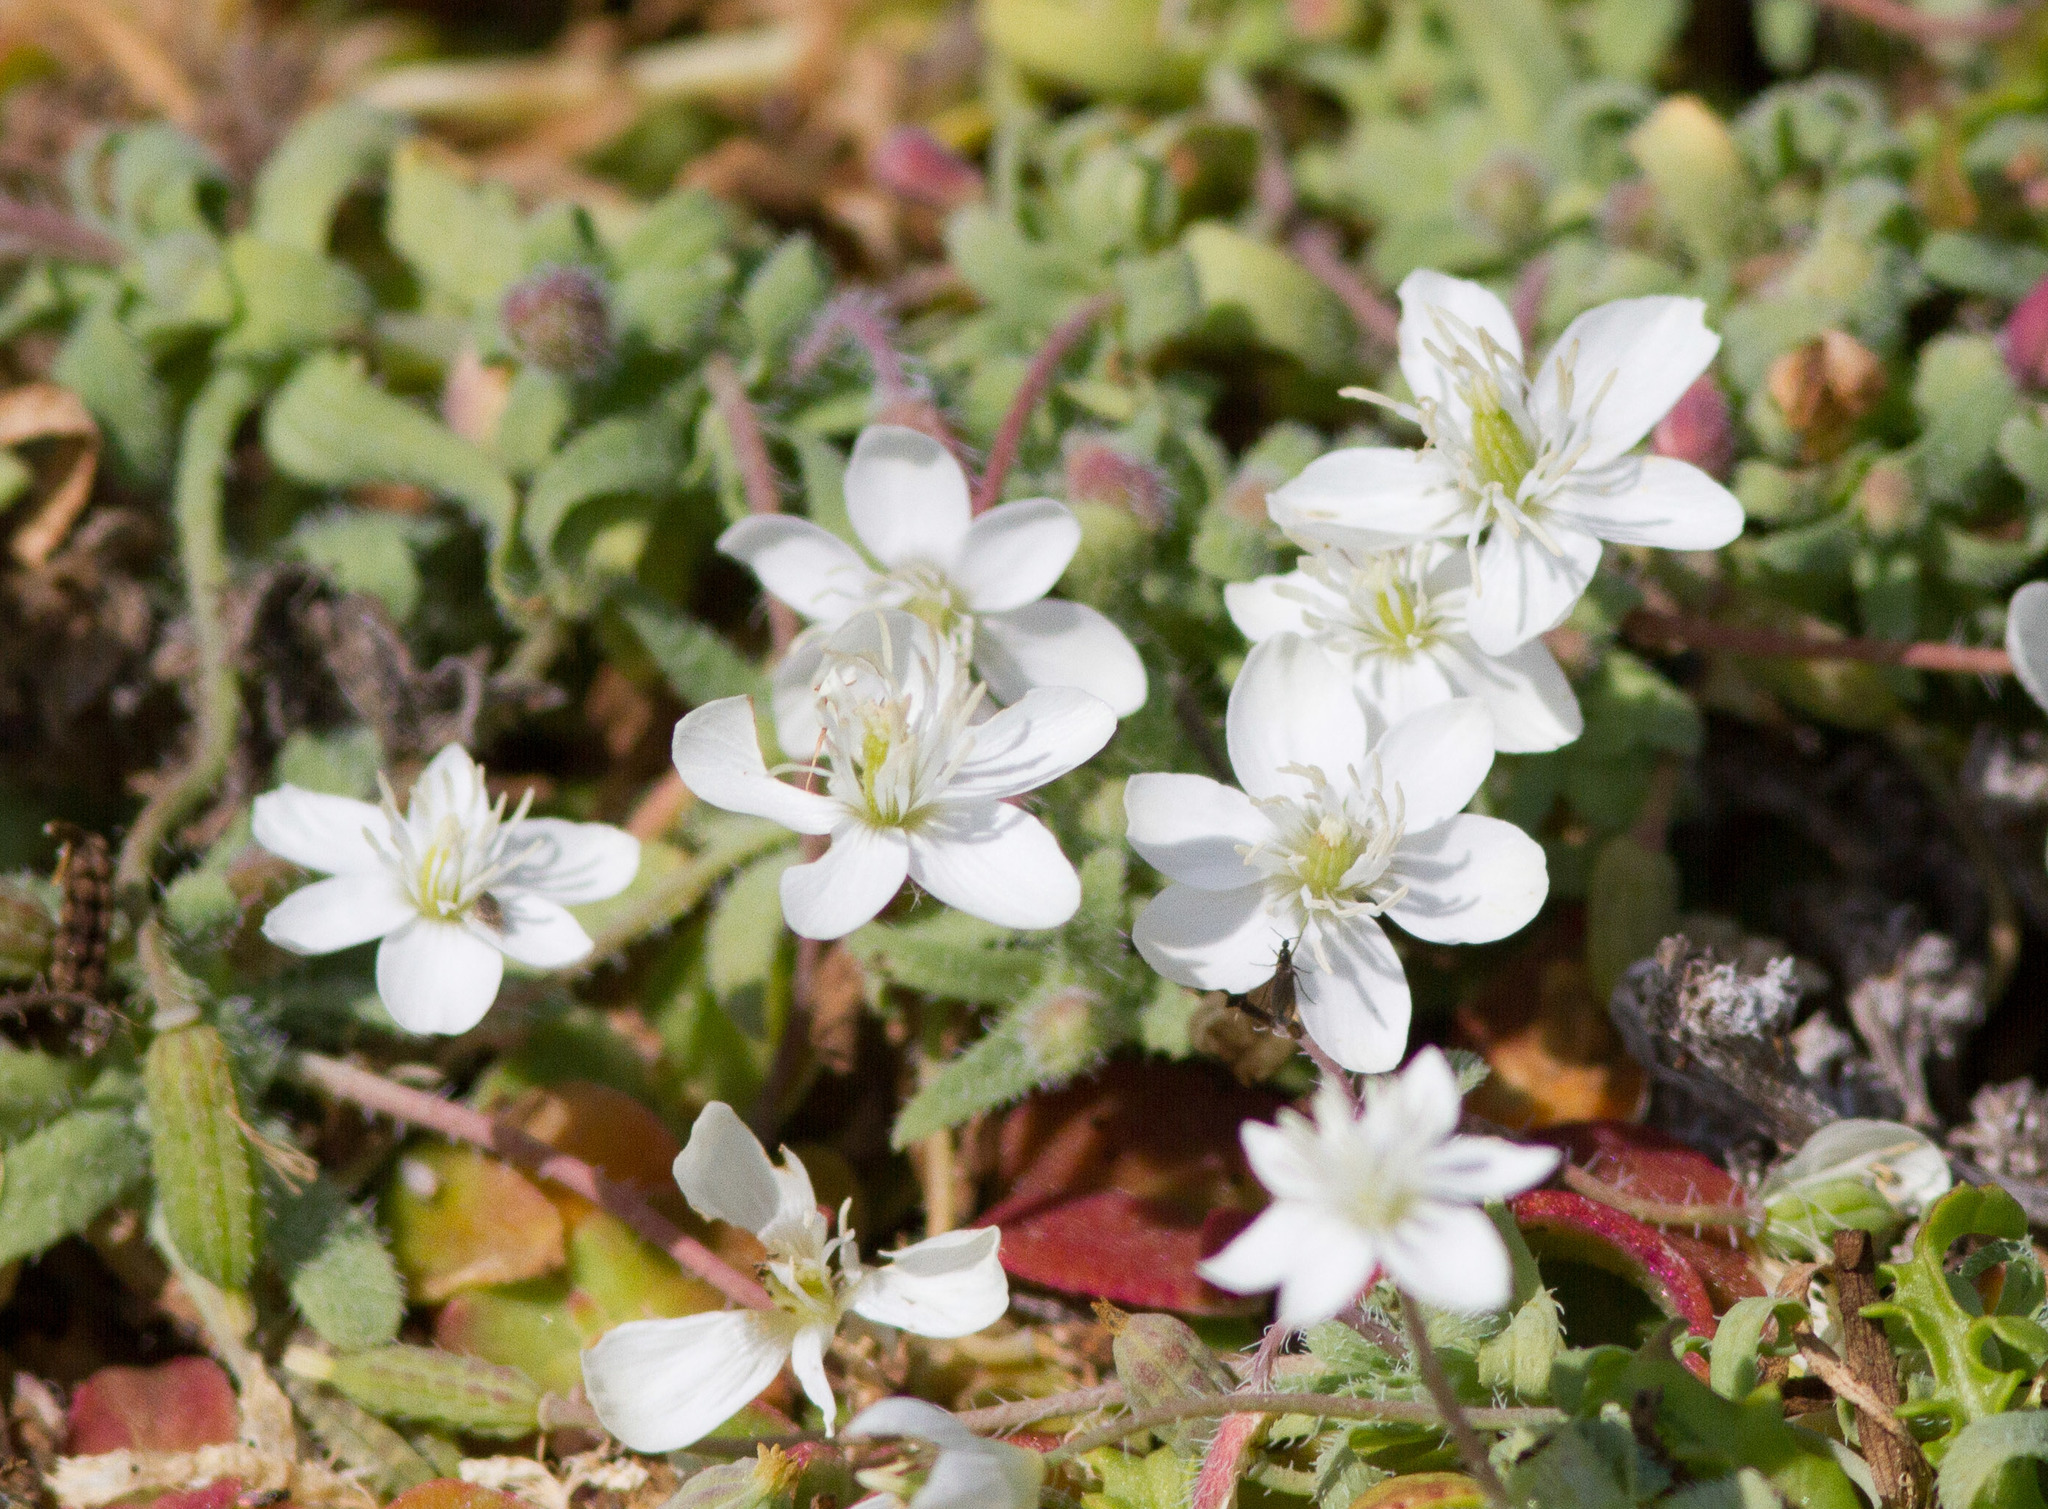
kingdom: Plantae
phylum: Tracheophyta
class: Magnoliopsida
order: Ranunculales
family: Papaveraceae
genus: Platystemon
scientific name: Platystemon californicus
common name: Cream-cups
